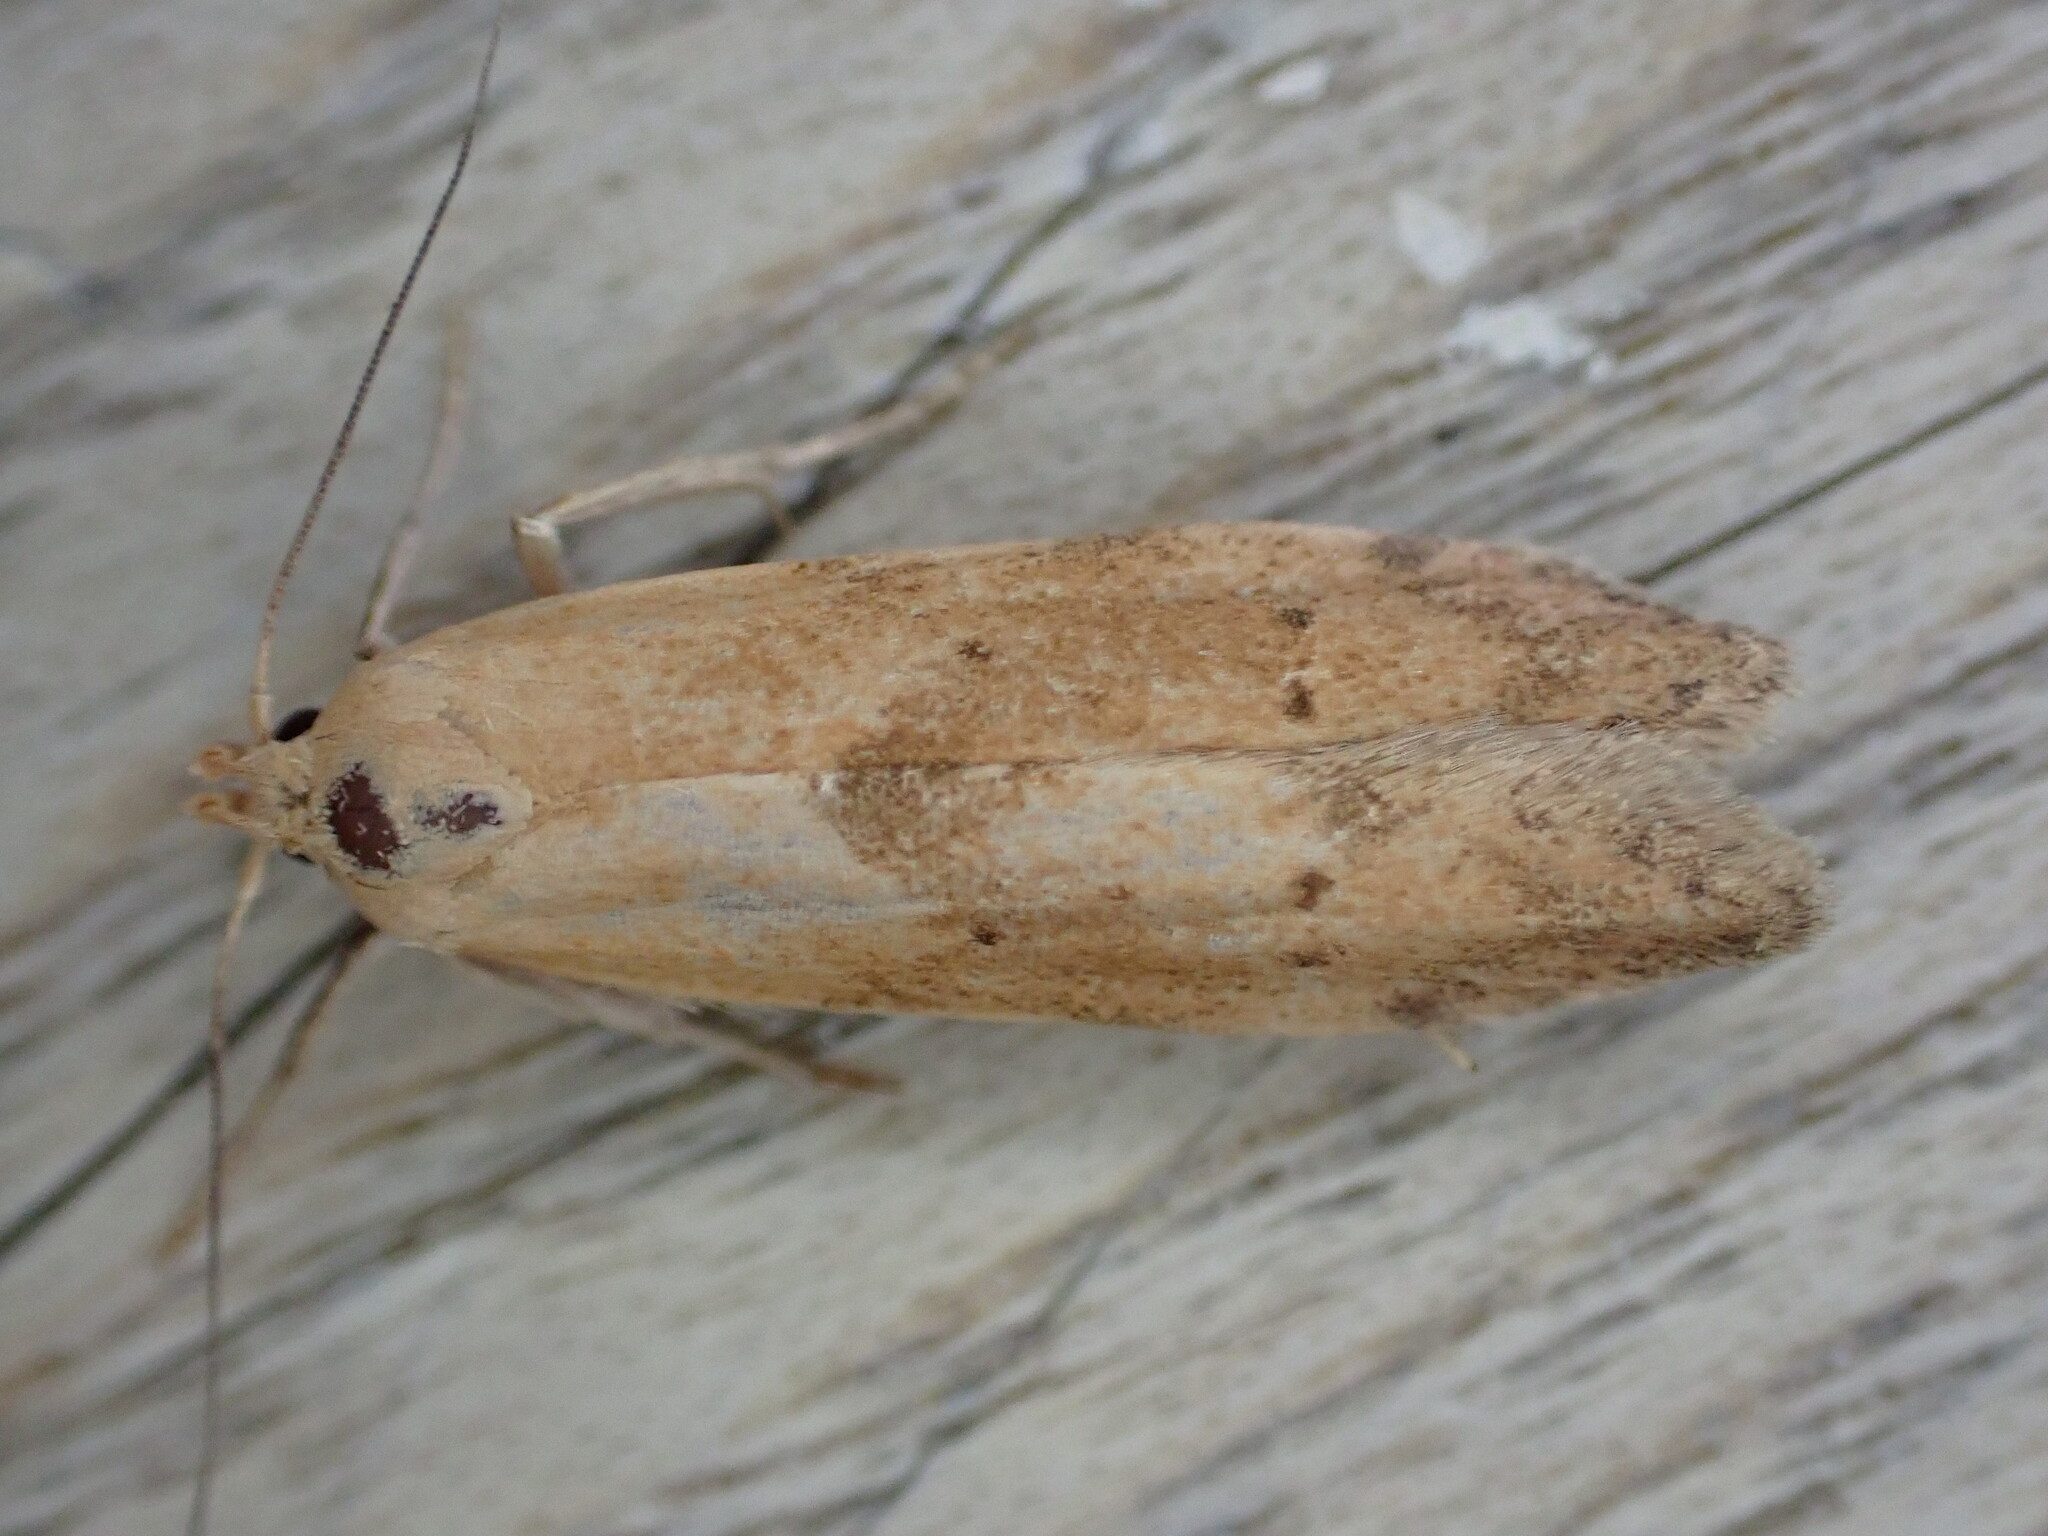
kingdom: Animalia
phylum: Arthropoda
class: Insecta
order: Lepidoptera
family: Blastobasidae
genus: Blastobasis
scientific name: Blastobasis lacticolella
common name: London dowd
